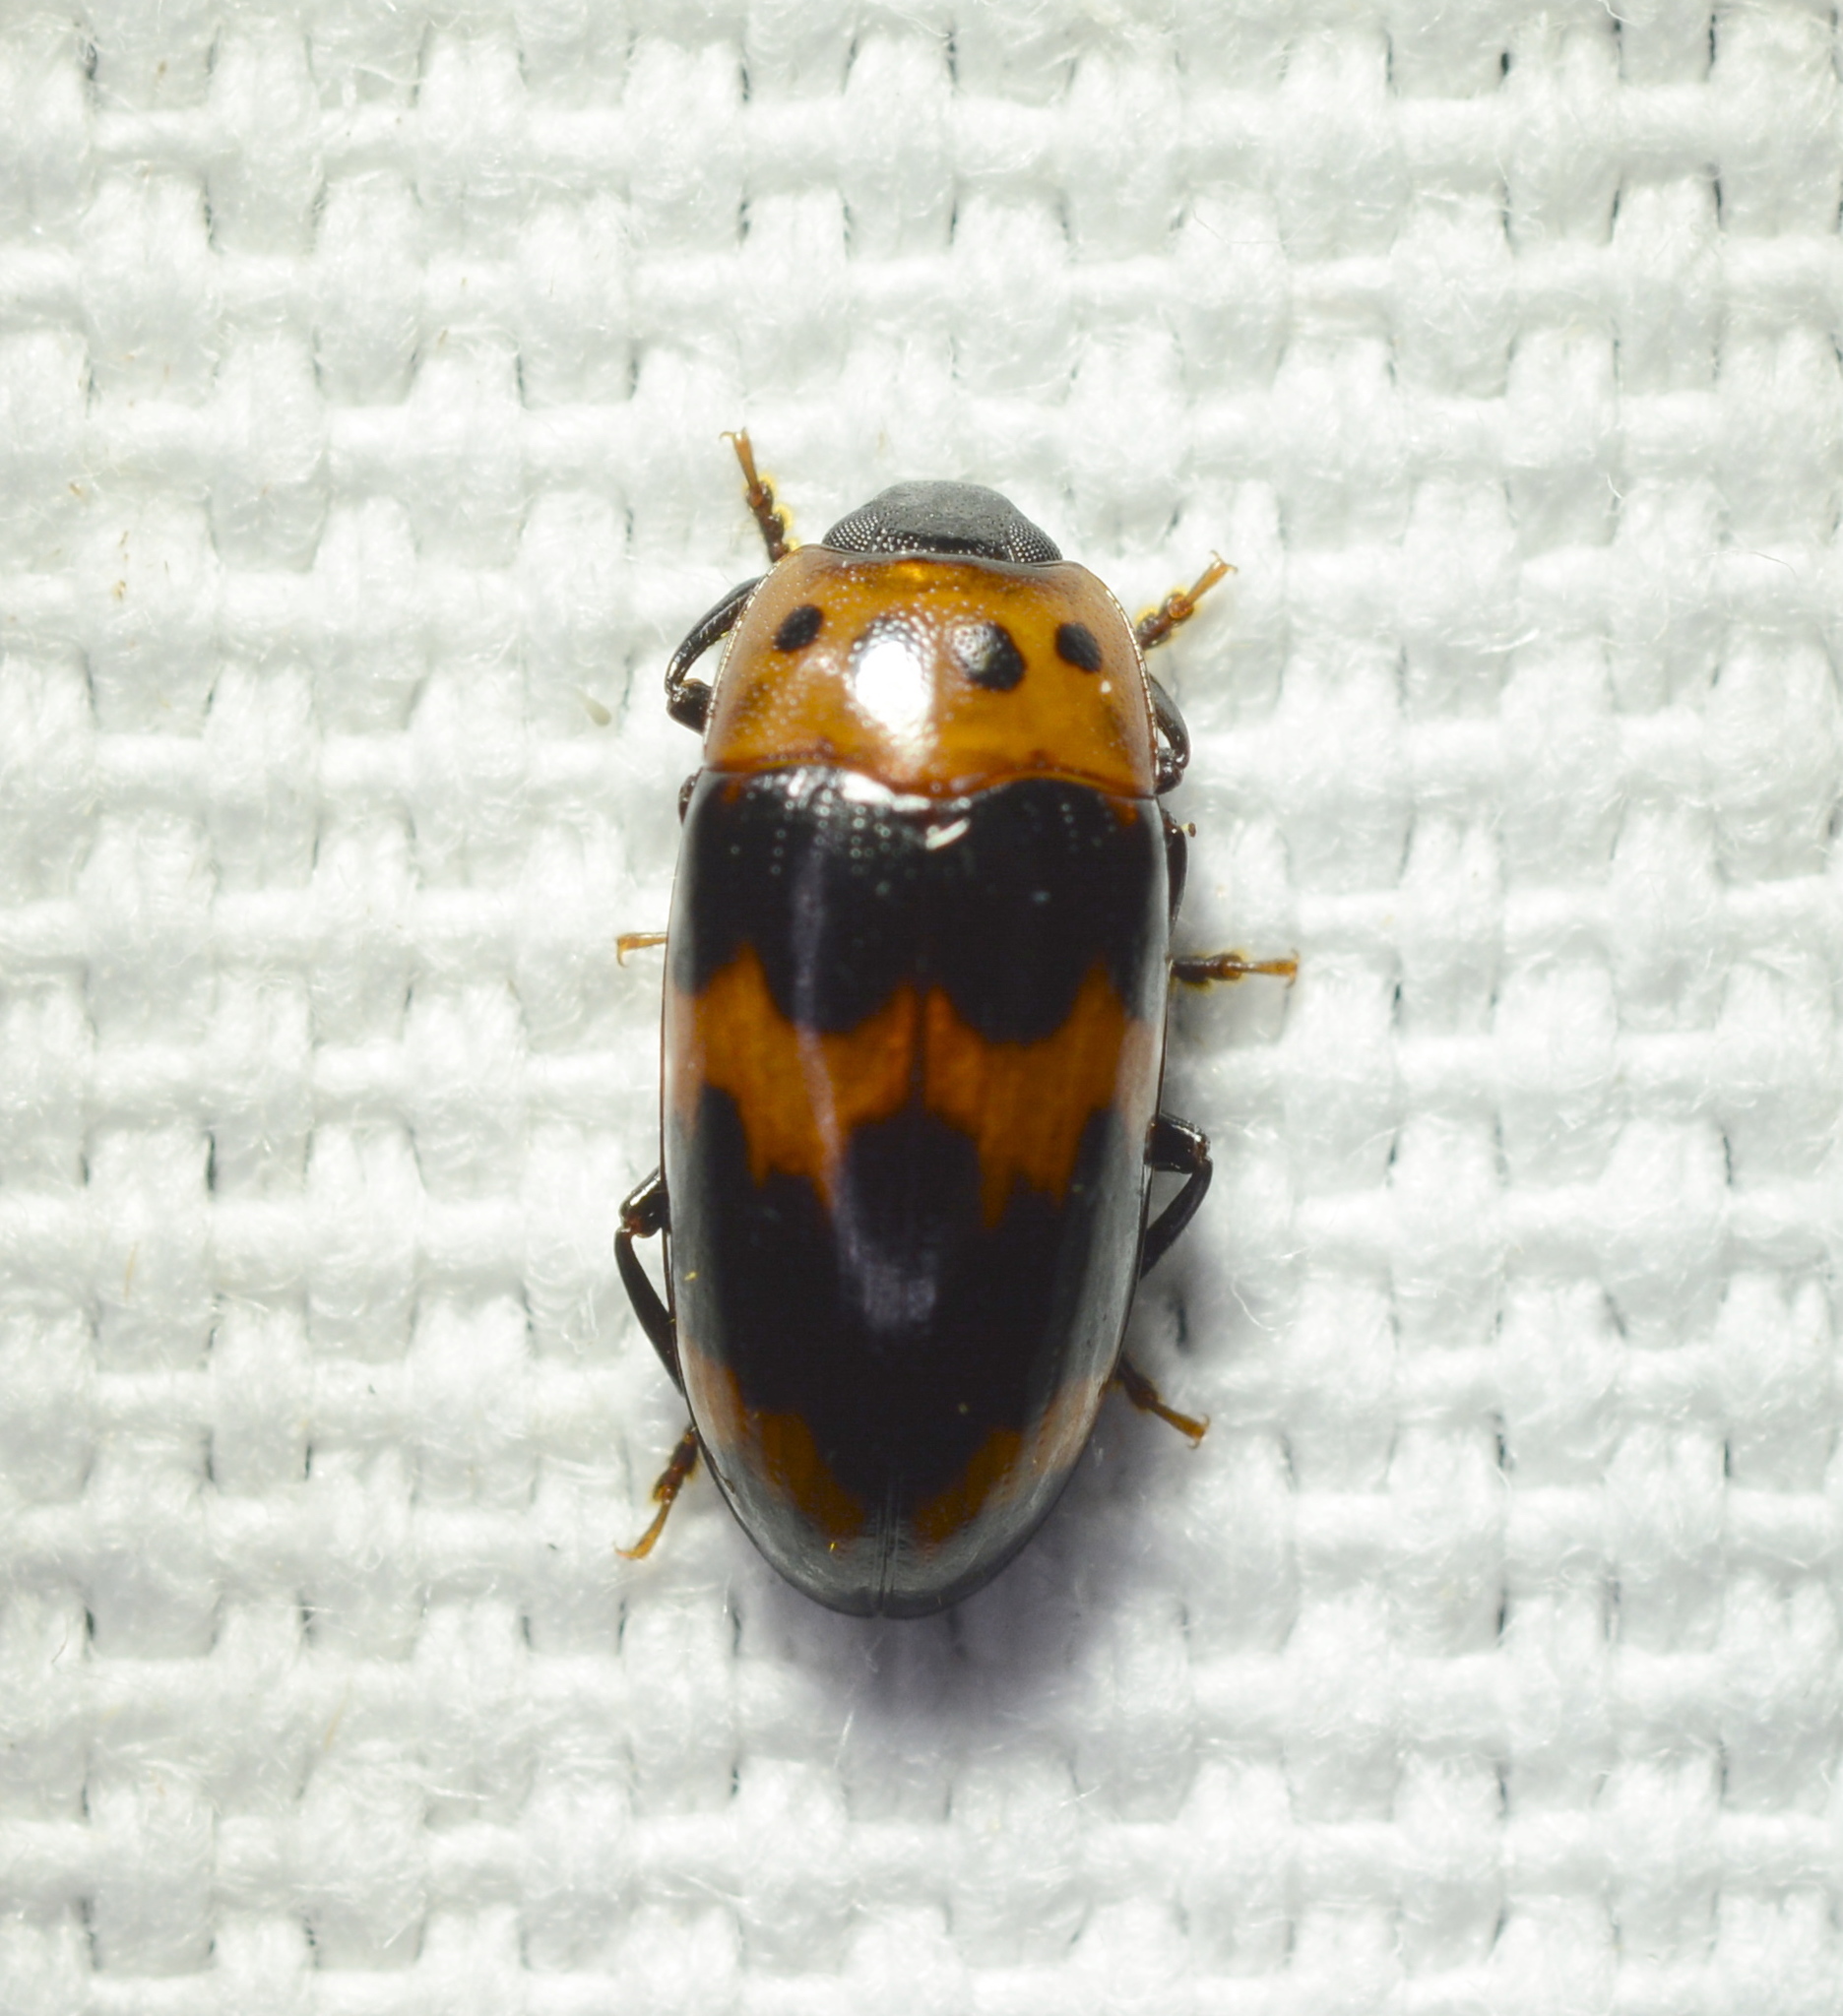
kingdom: Animalia
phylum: Arthropoda
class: Insecta
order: Coleoptera
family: Erotylidae
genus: Ischyrus
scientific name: Ischyrus quadripunctatus
